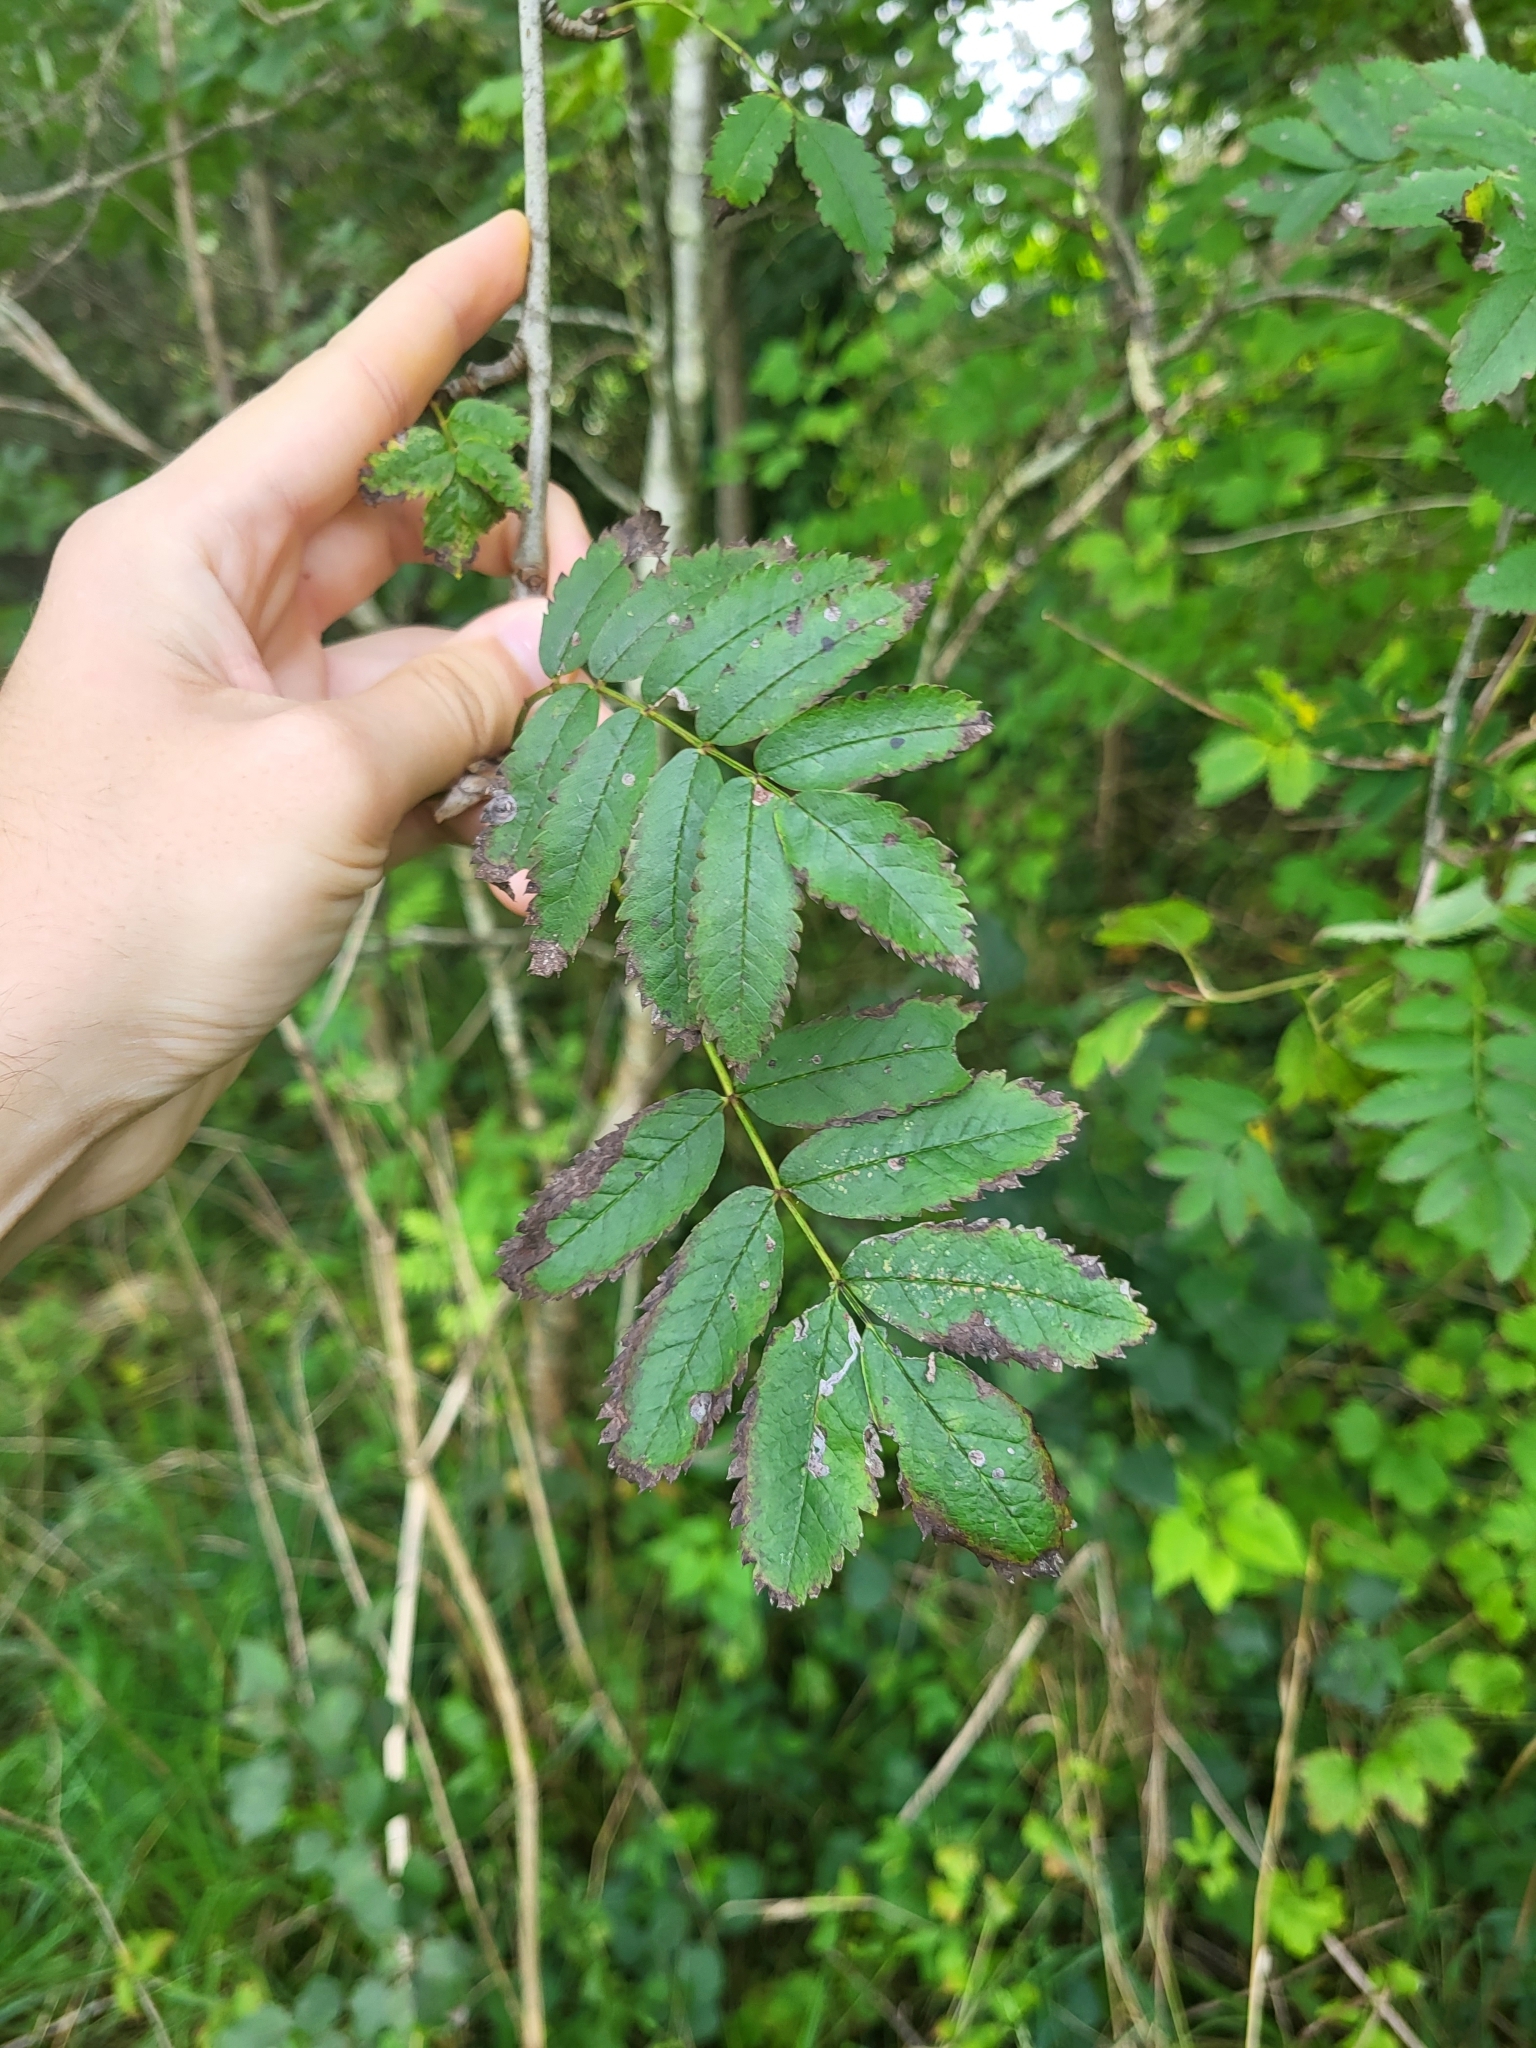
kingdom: Plantae
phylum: Tracheophyta
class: Magnoliopsida
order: Rosales
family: Rosaceae
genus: Sorbus
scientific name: Sorbus aucuparia
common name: Rowan
